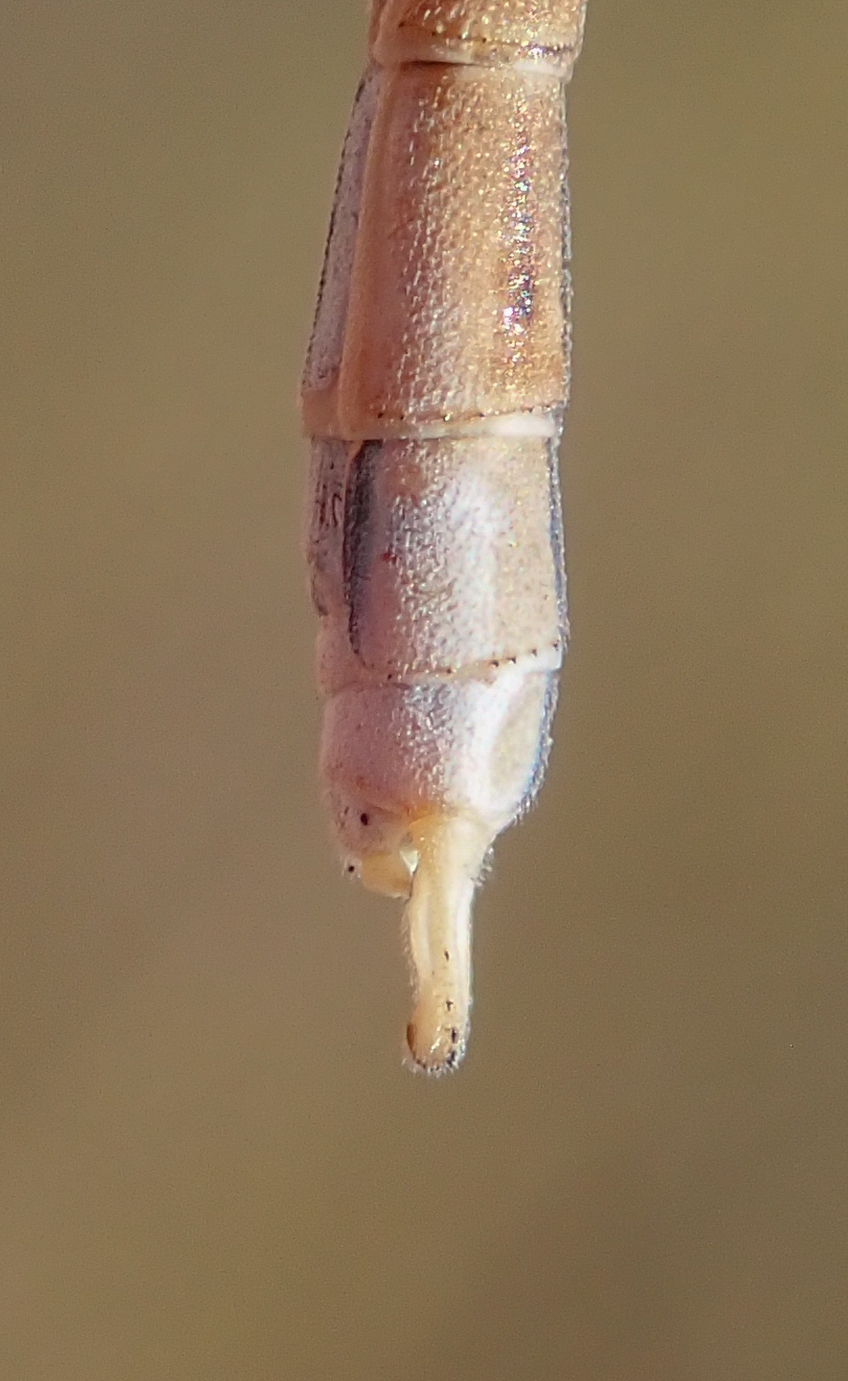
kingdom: Animalia
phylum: Arthropoda
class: Insecta
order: Odonata
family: Lestidae
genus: Lestes
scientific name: Lestes pallidus
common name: Pallid spreadwing
